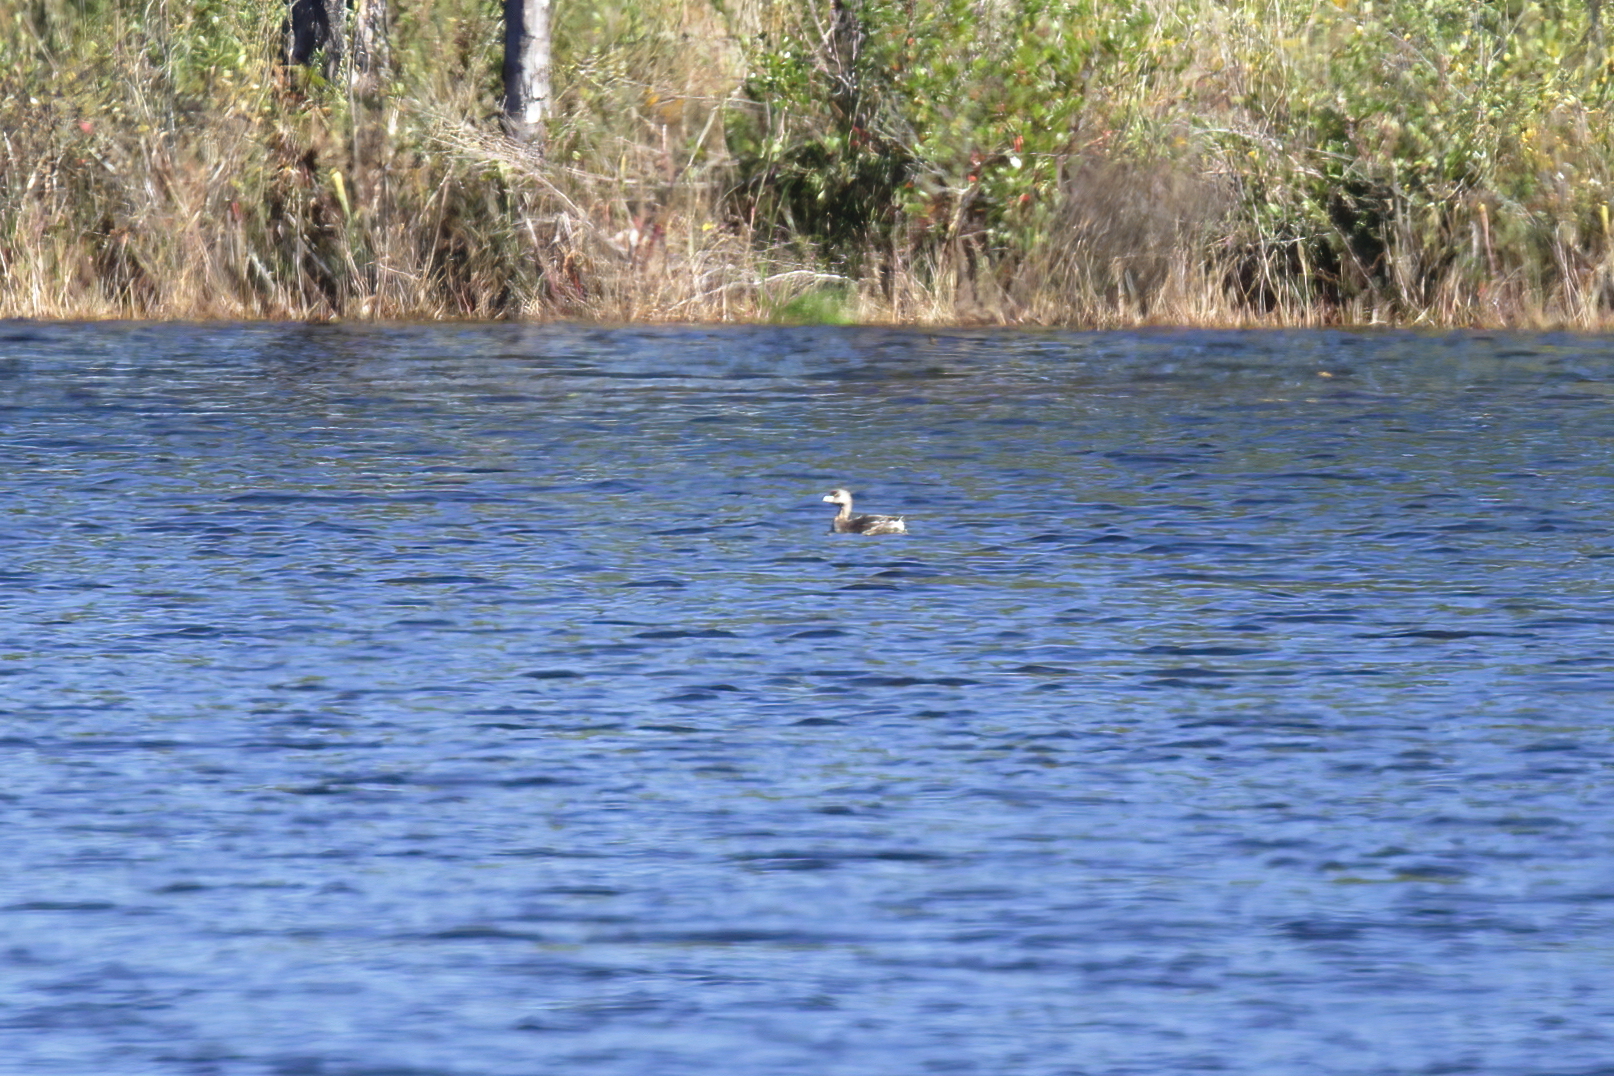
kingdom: Animalia
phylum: Chordata
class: Aves
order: Podicipediformes
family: Podicipedidae
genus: Podilymbus
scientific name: Podilymbus podiceps
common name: Pied-billed grebe
